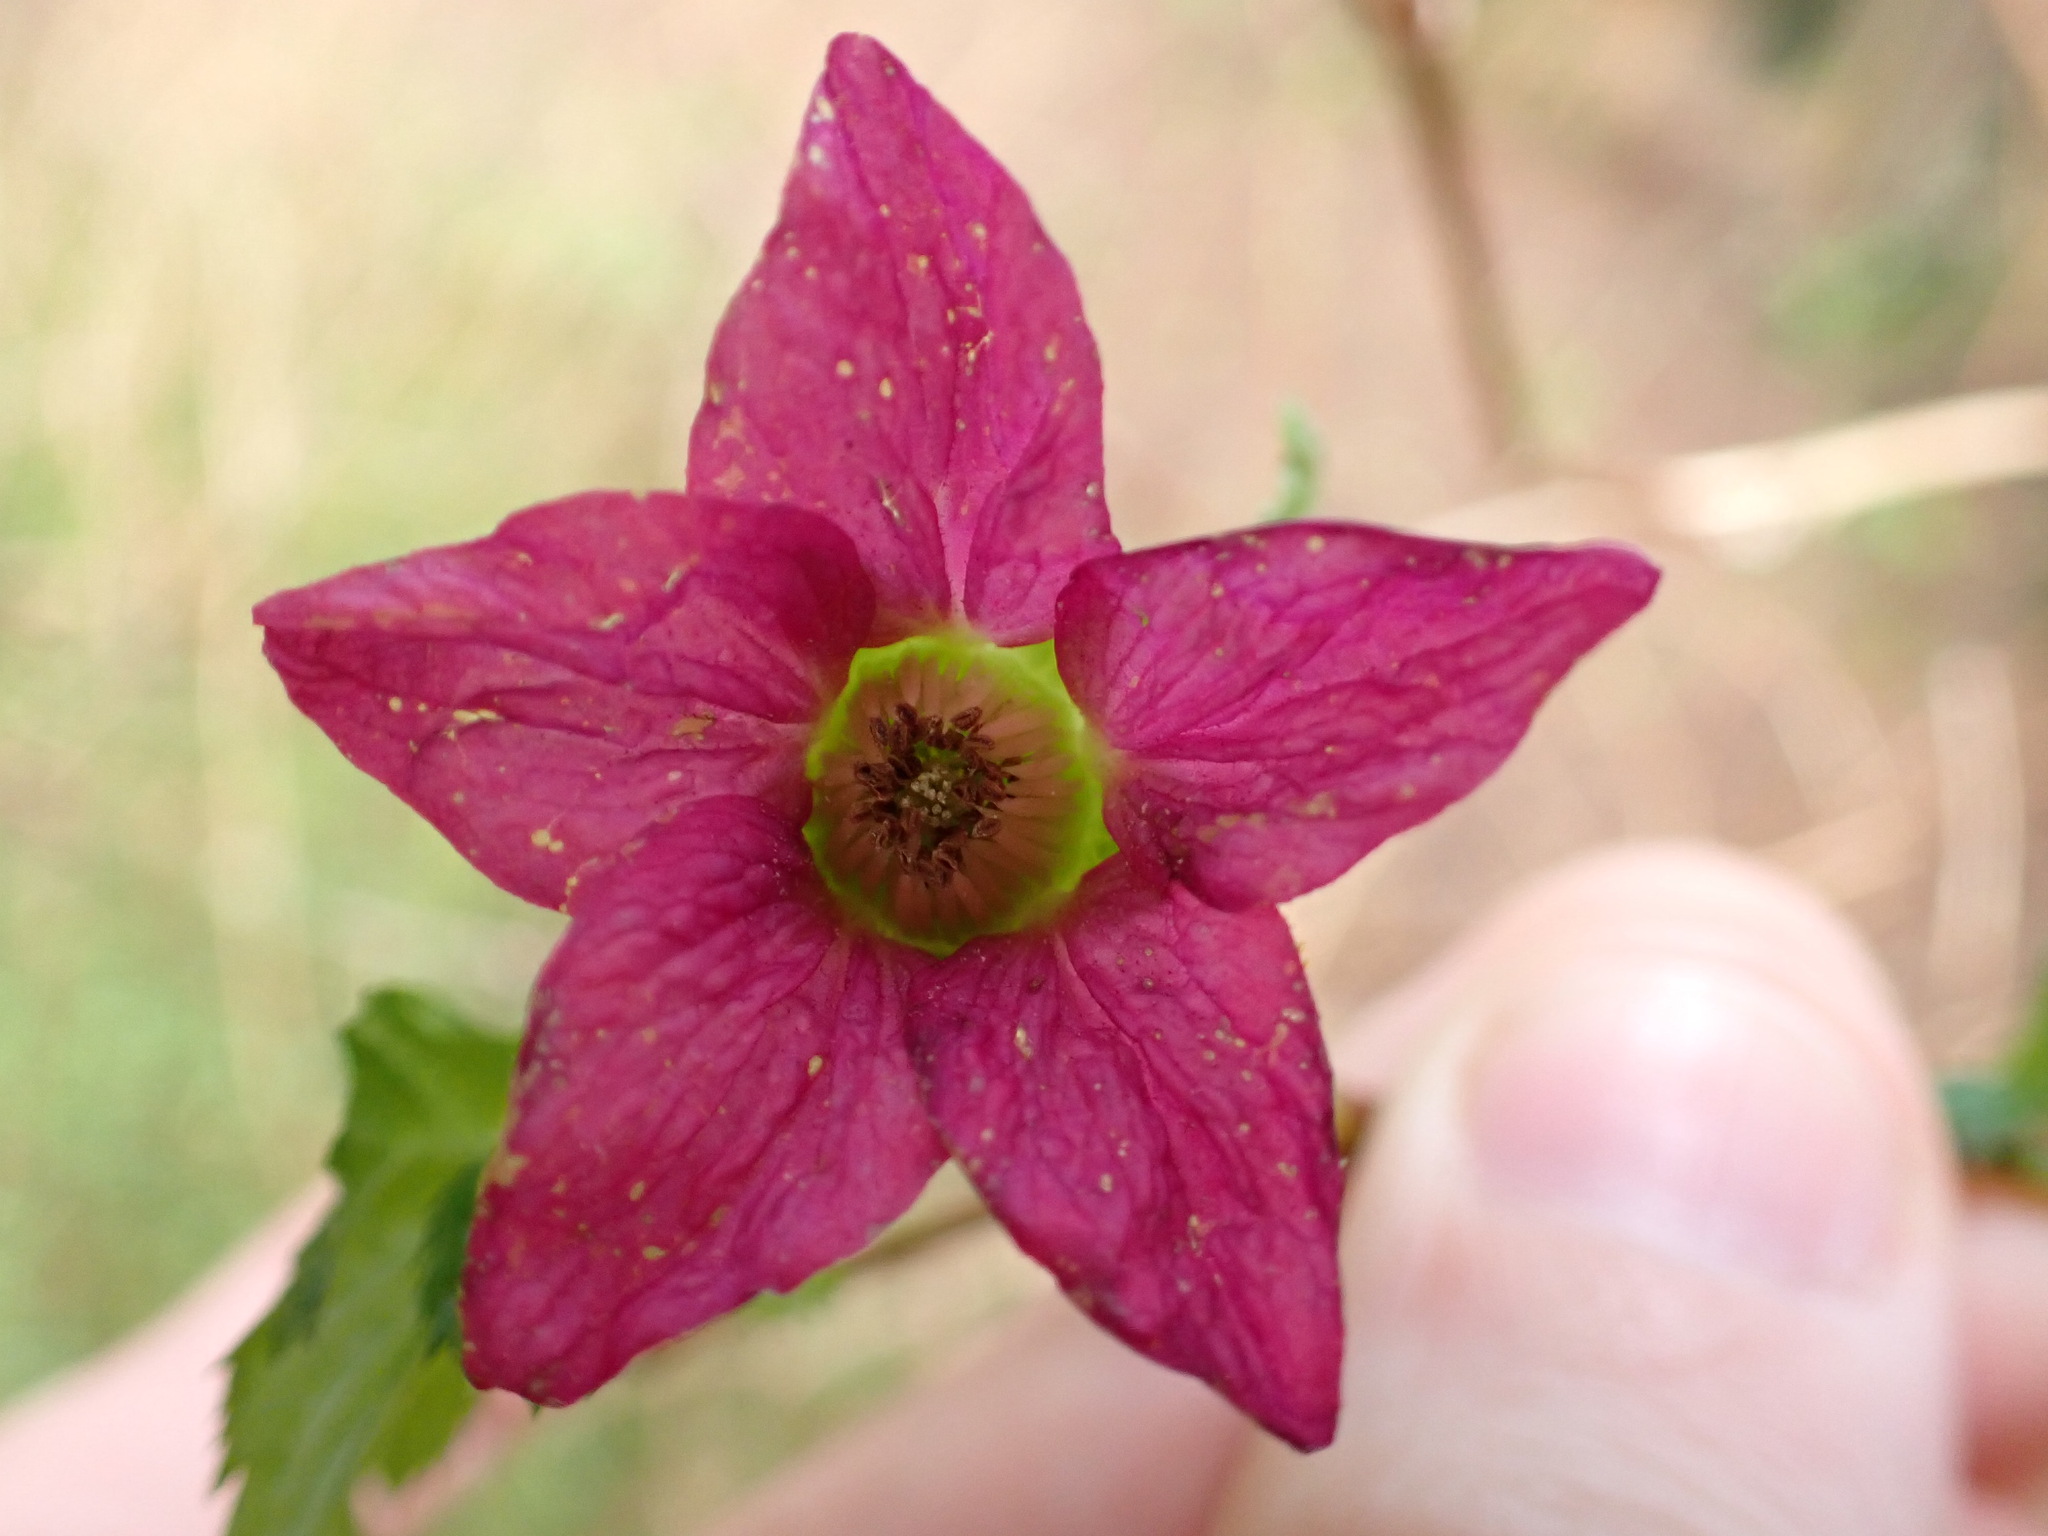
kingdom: Plantae
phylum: Tracheophyta
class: Magnoliopsida
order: Rosales
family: Rosaceae
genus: Rubus
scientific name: Rubus spectabilis
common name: Salmonberry
